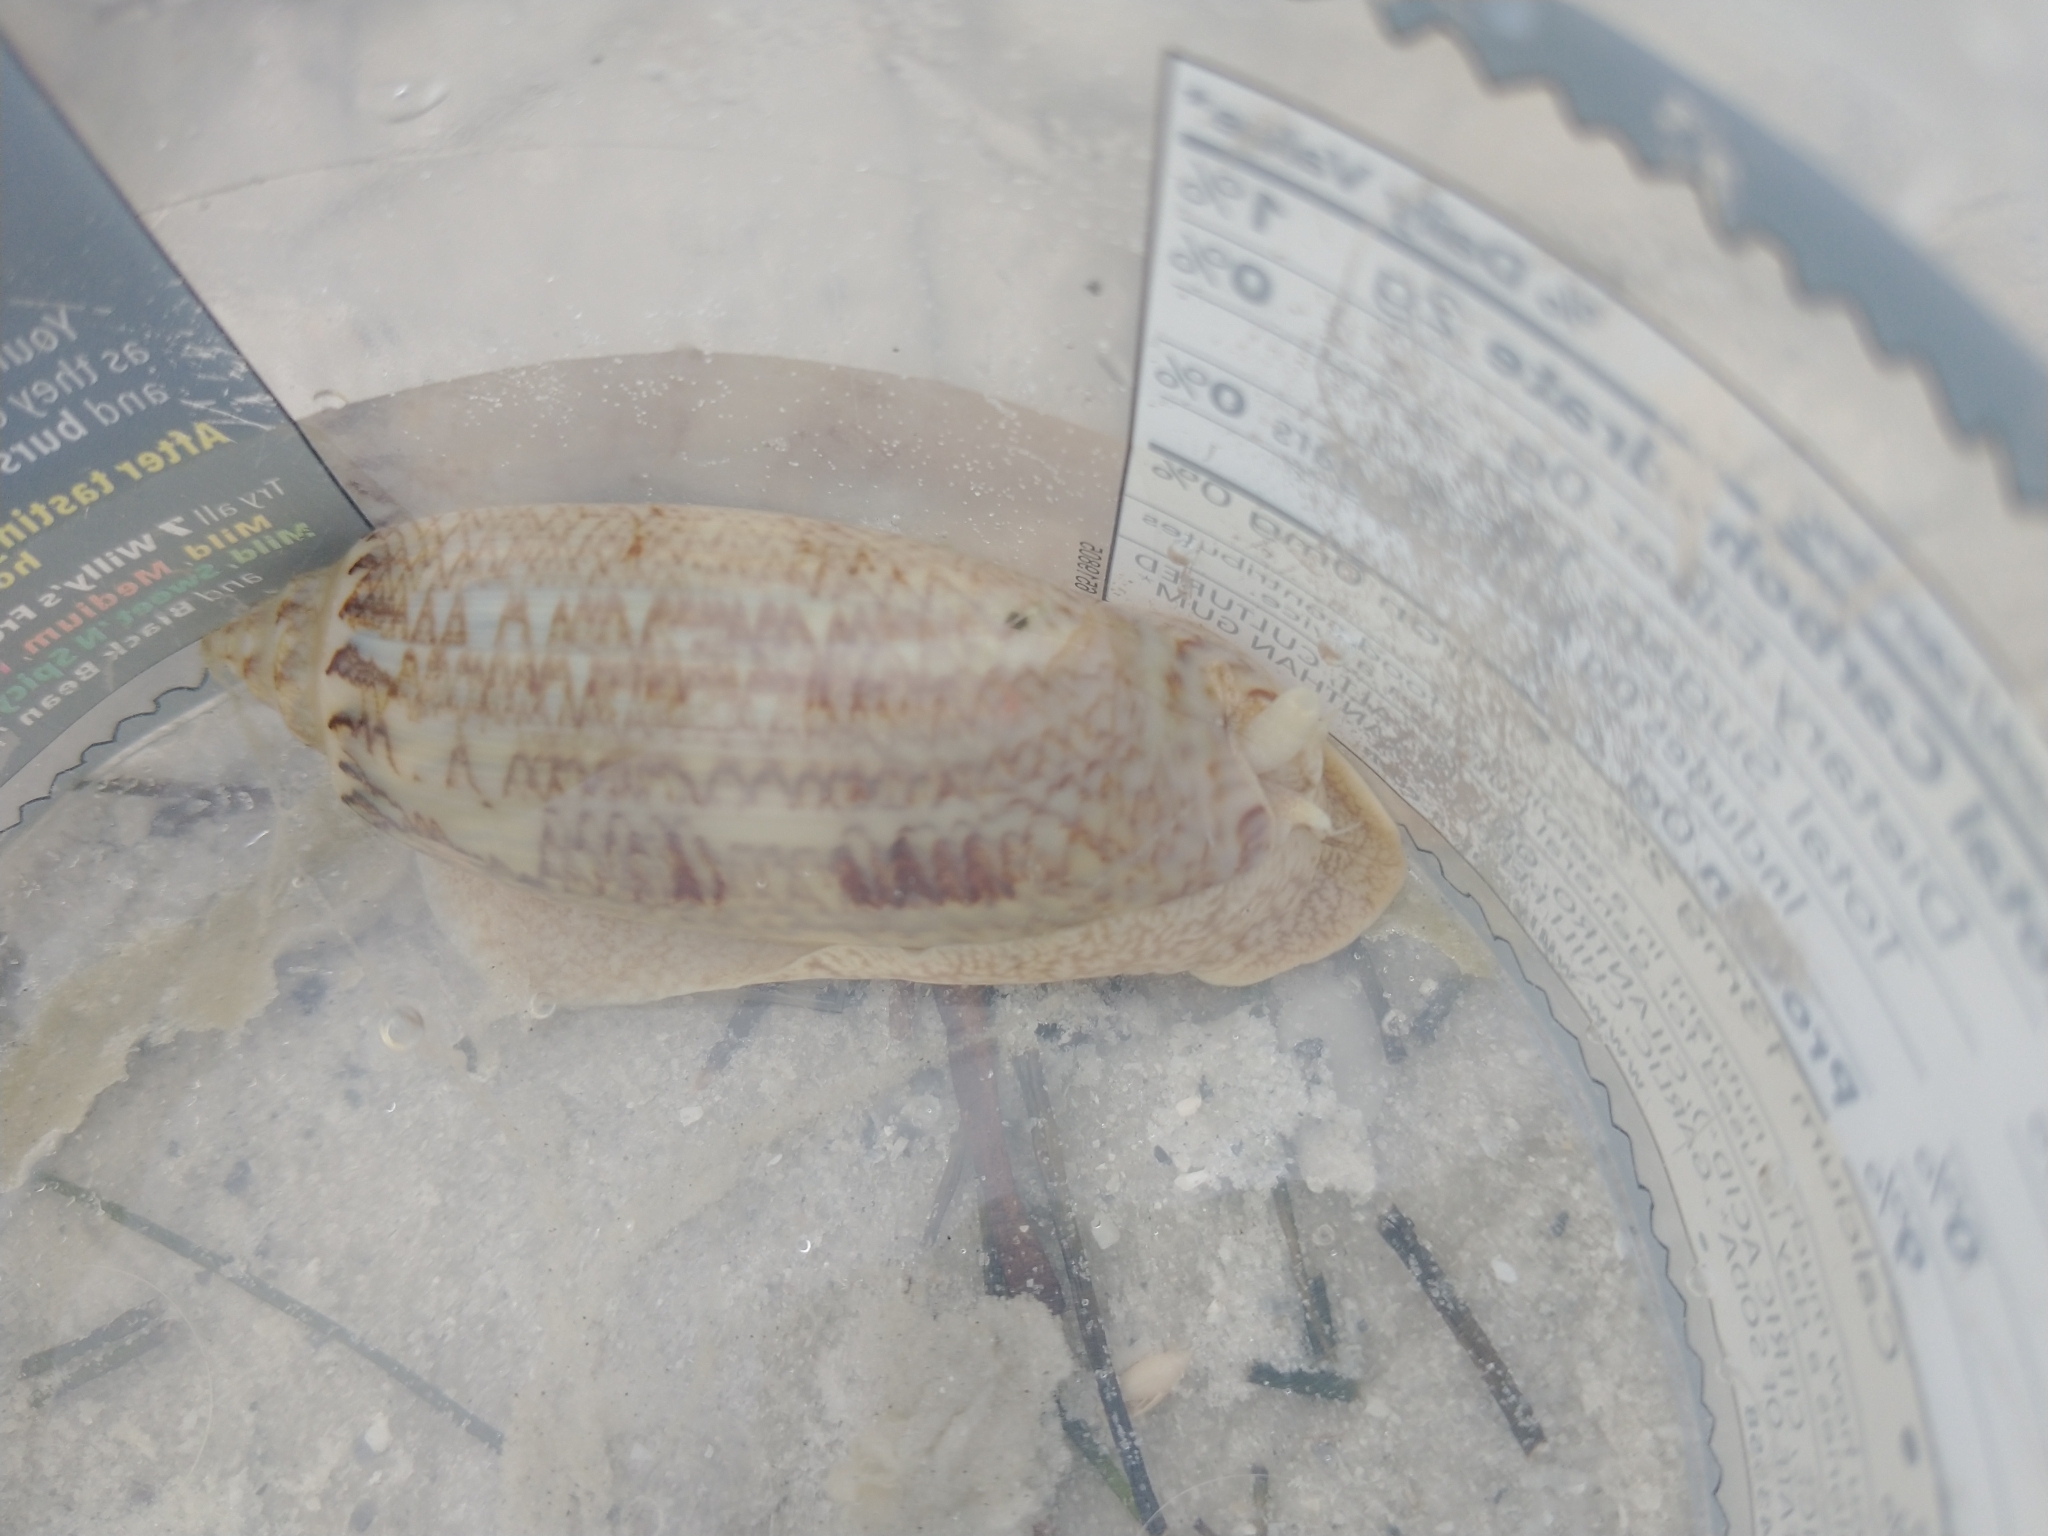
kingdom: Animalia
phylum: Mollusca
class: Gastropoda
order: Neogastropoda
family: Olividae
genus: Oliva
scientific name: Oliva sayana
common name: Lettered olive
